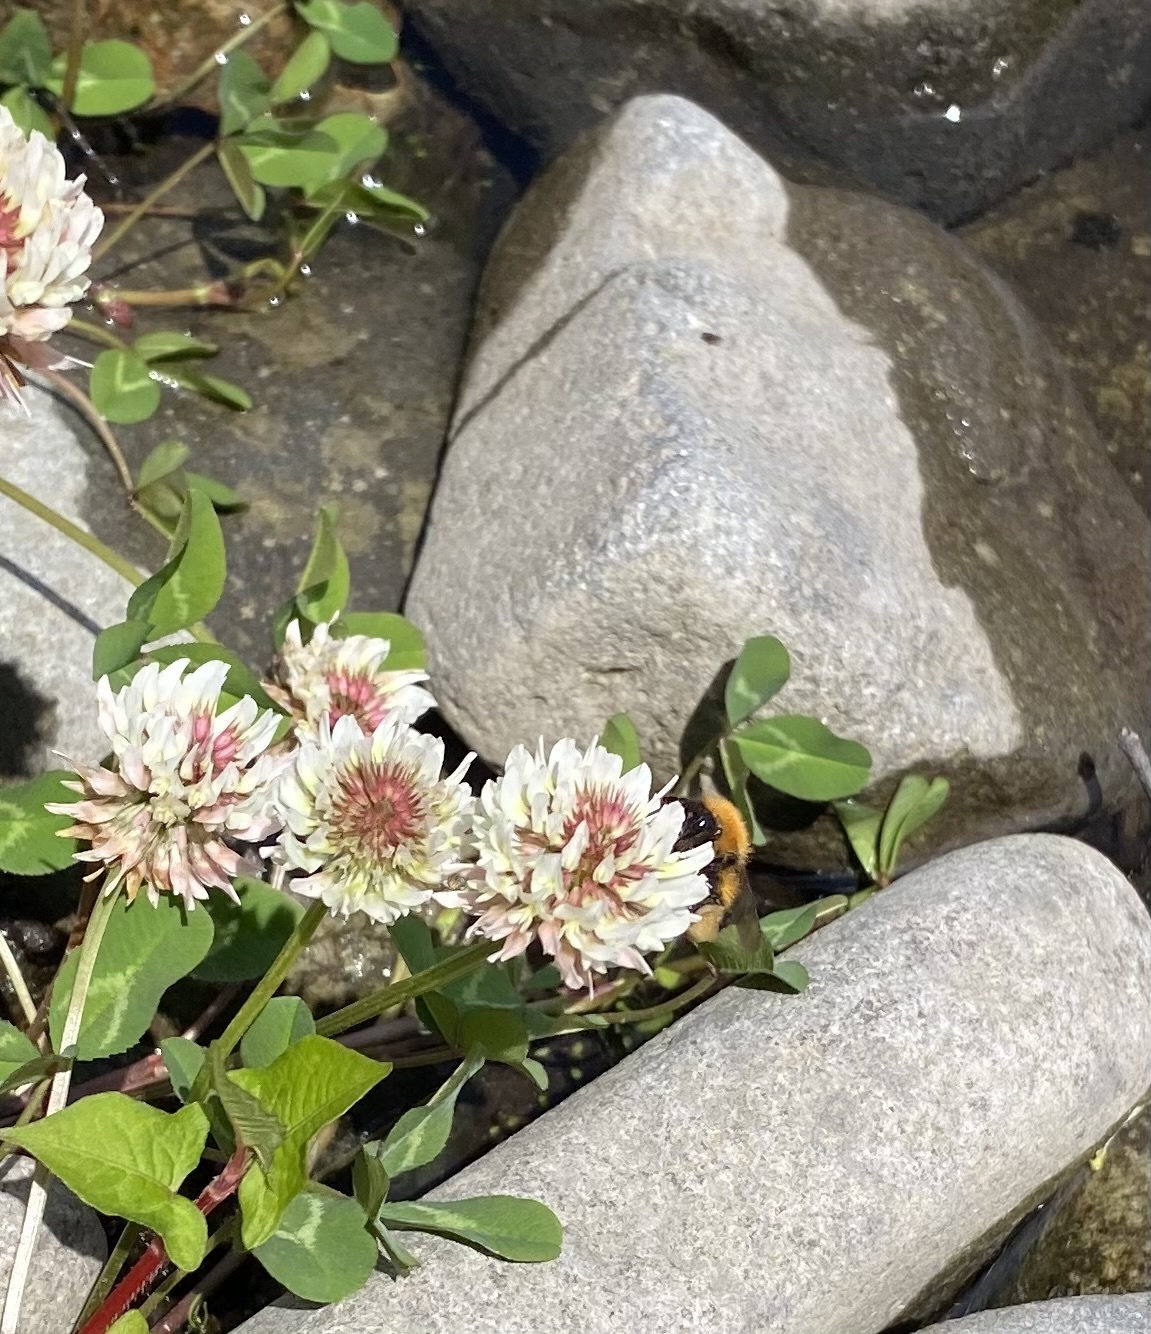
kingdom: Plantae
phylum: Tracheophyta
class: Magnoliopsida
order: Fabales
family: Fabaceae
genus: Trifolium
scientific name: Trifolium repens
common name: White clover
